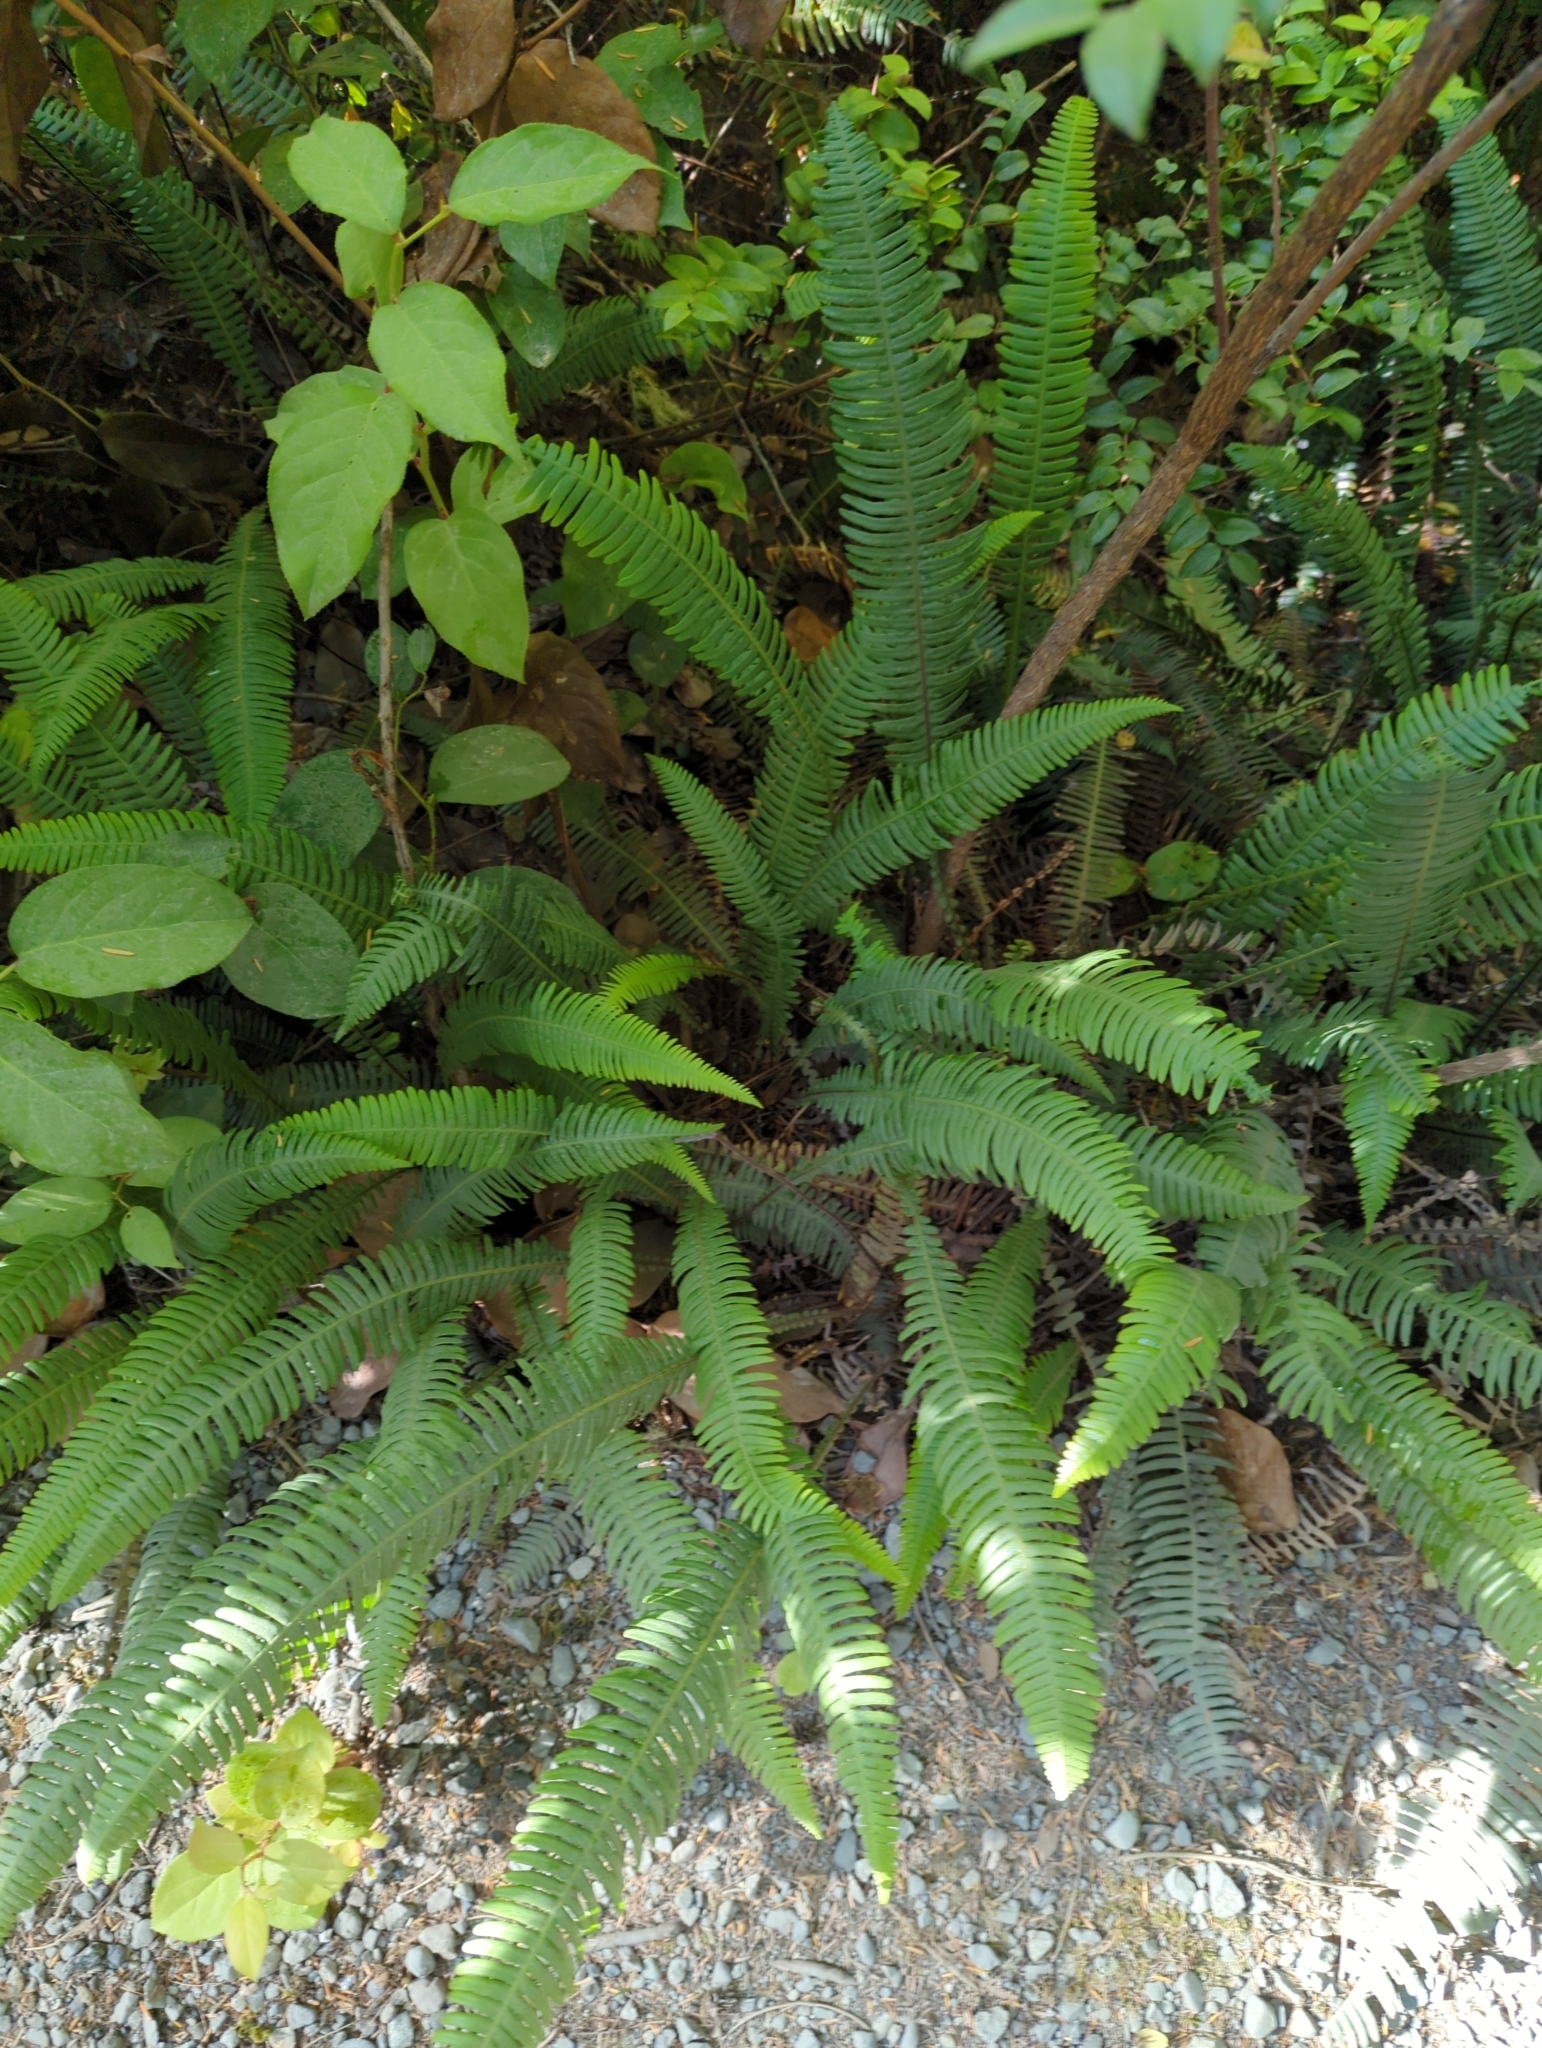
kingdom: Plantae
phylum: Tracheophyta
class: Polypodiopsida
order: Polypodiales
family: Blechnaceae
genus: Struthiopteris
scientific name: Struthiopteris spicant
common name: Deer fern
